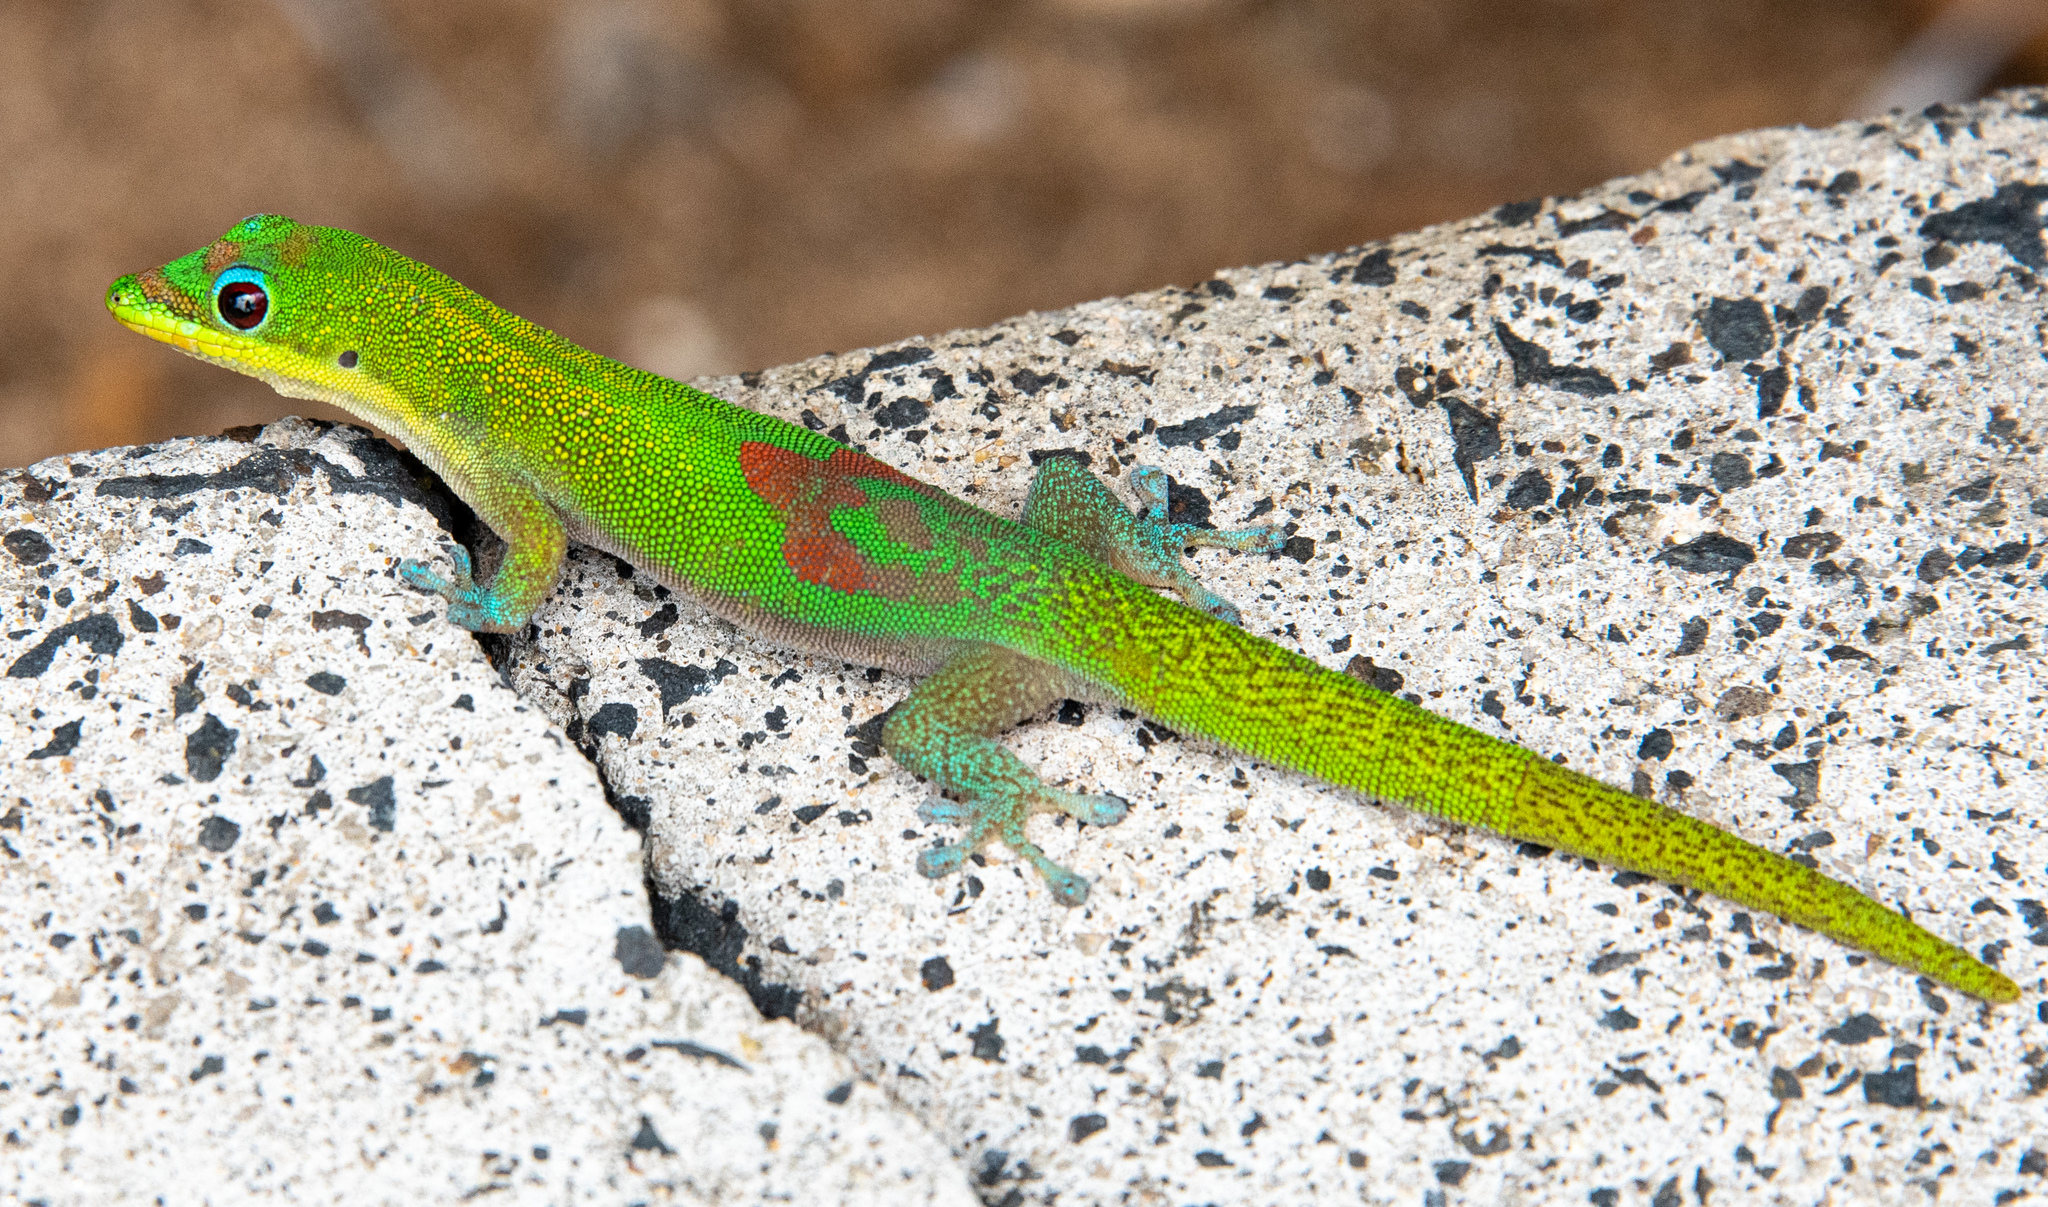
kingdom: Animalia
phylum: Chordata
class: Squamata
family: Gekkonidae
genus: Phelsuma
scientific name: Phelsuma laticauda
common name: Gold dust day gecko
